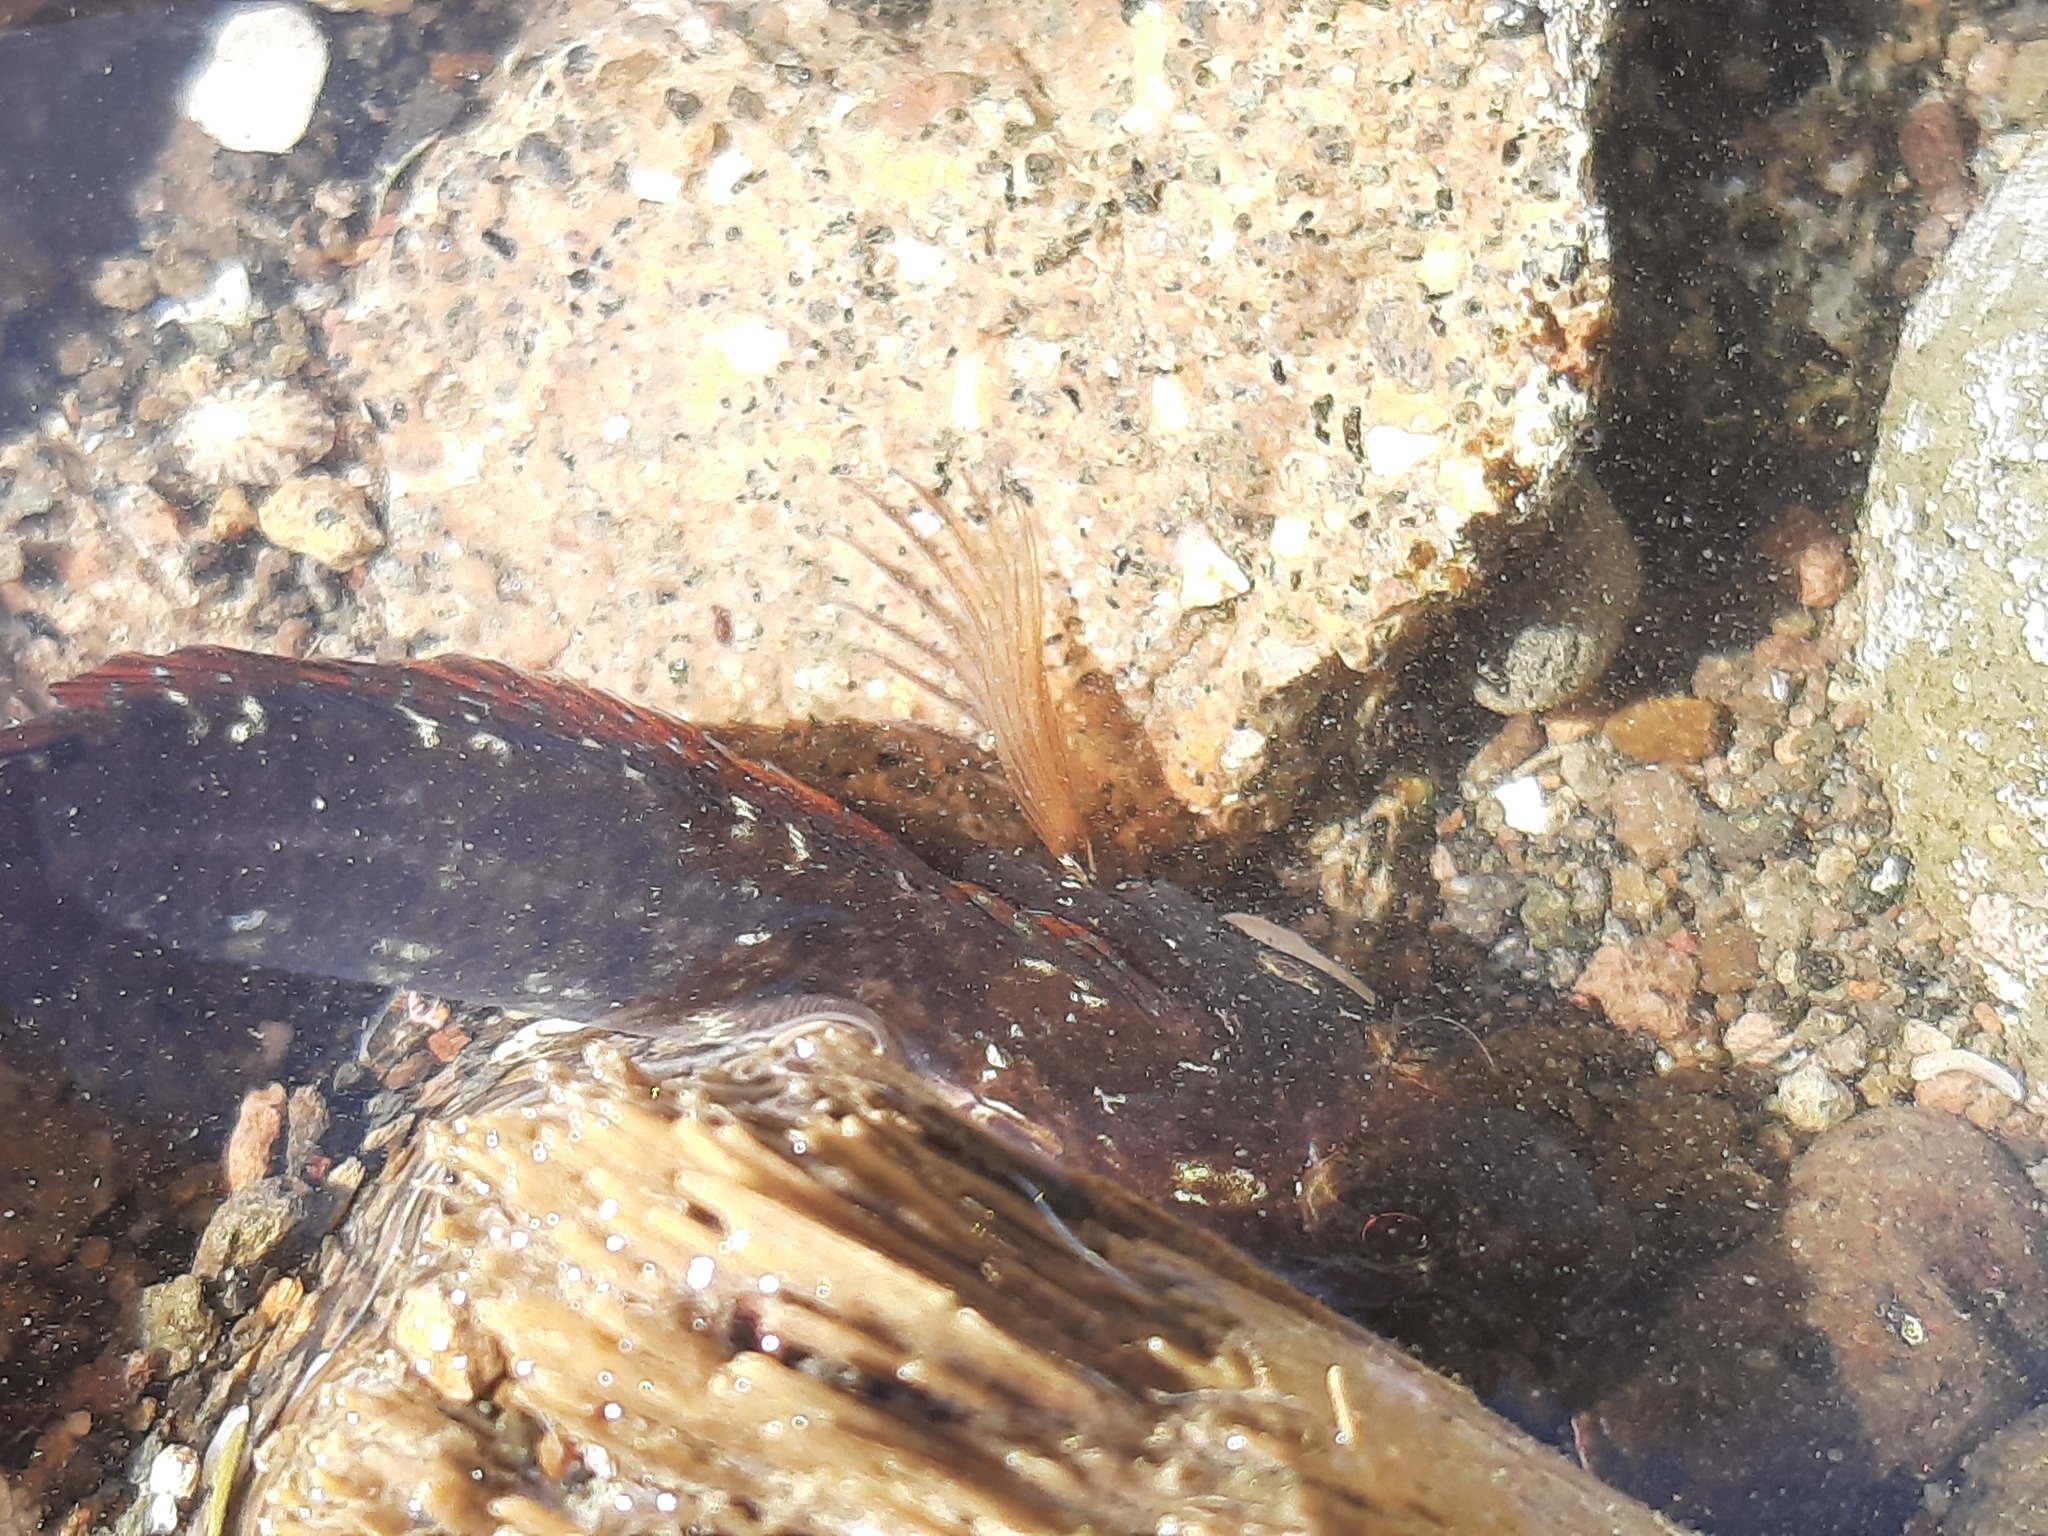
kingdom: Animalia
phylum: Chordata
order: Perciformes
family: Tripterygiidae
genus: Ruanoho
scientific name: Ruanoho decemdigitatus
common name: Longfinned triplefin
